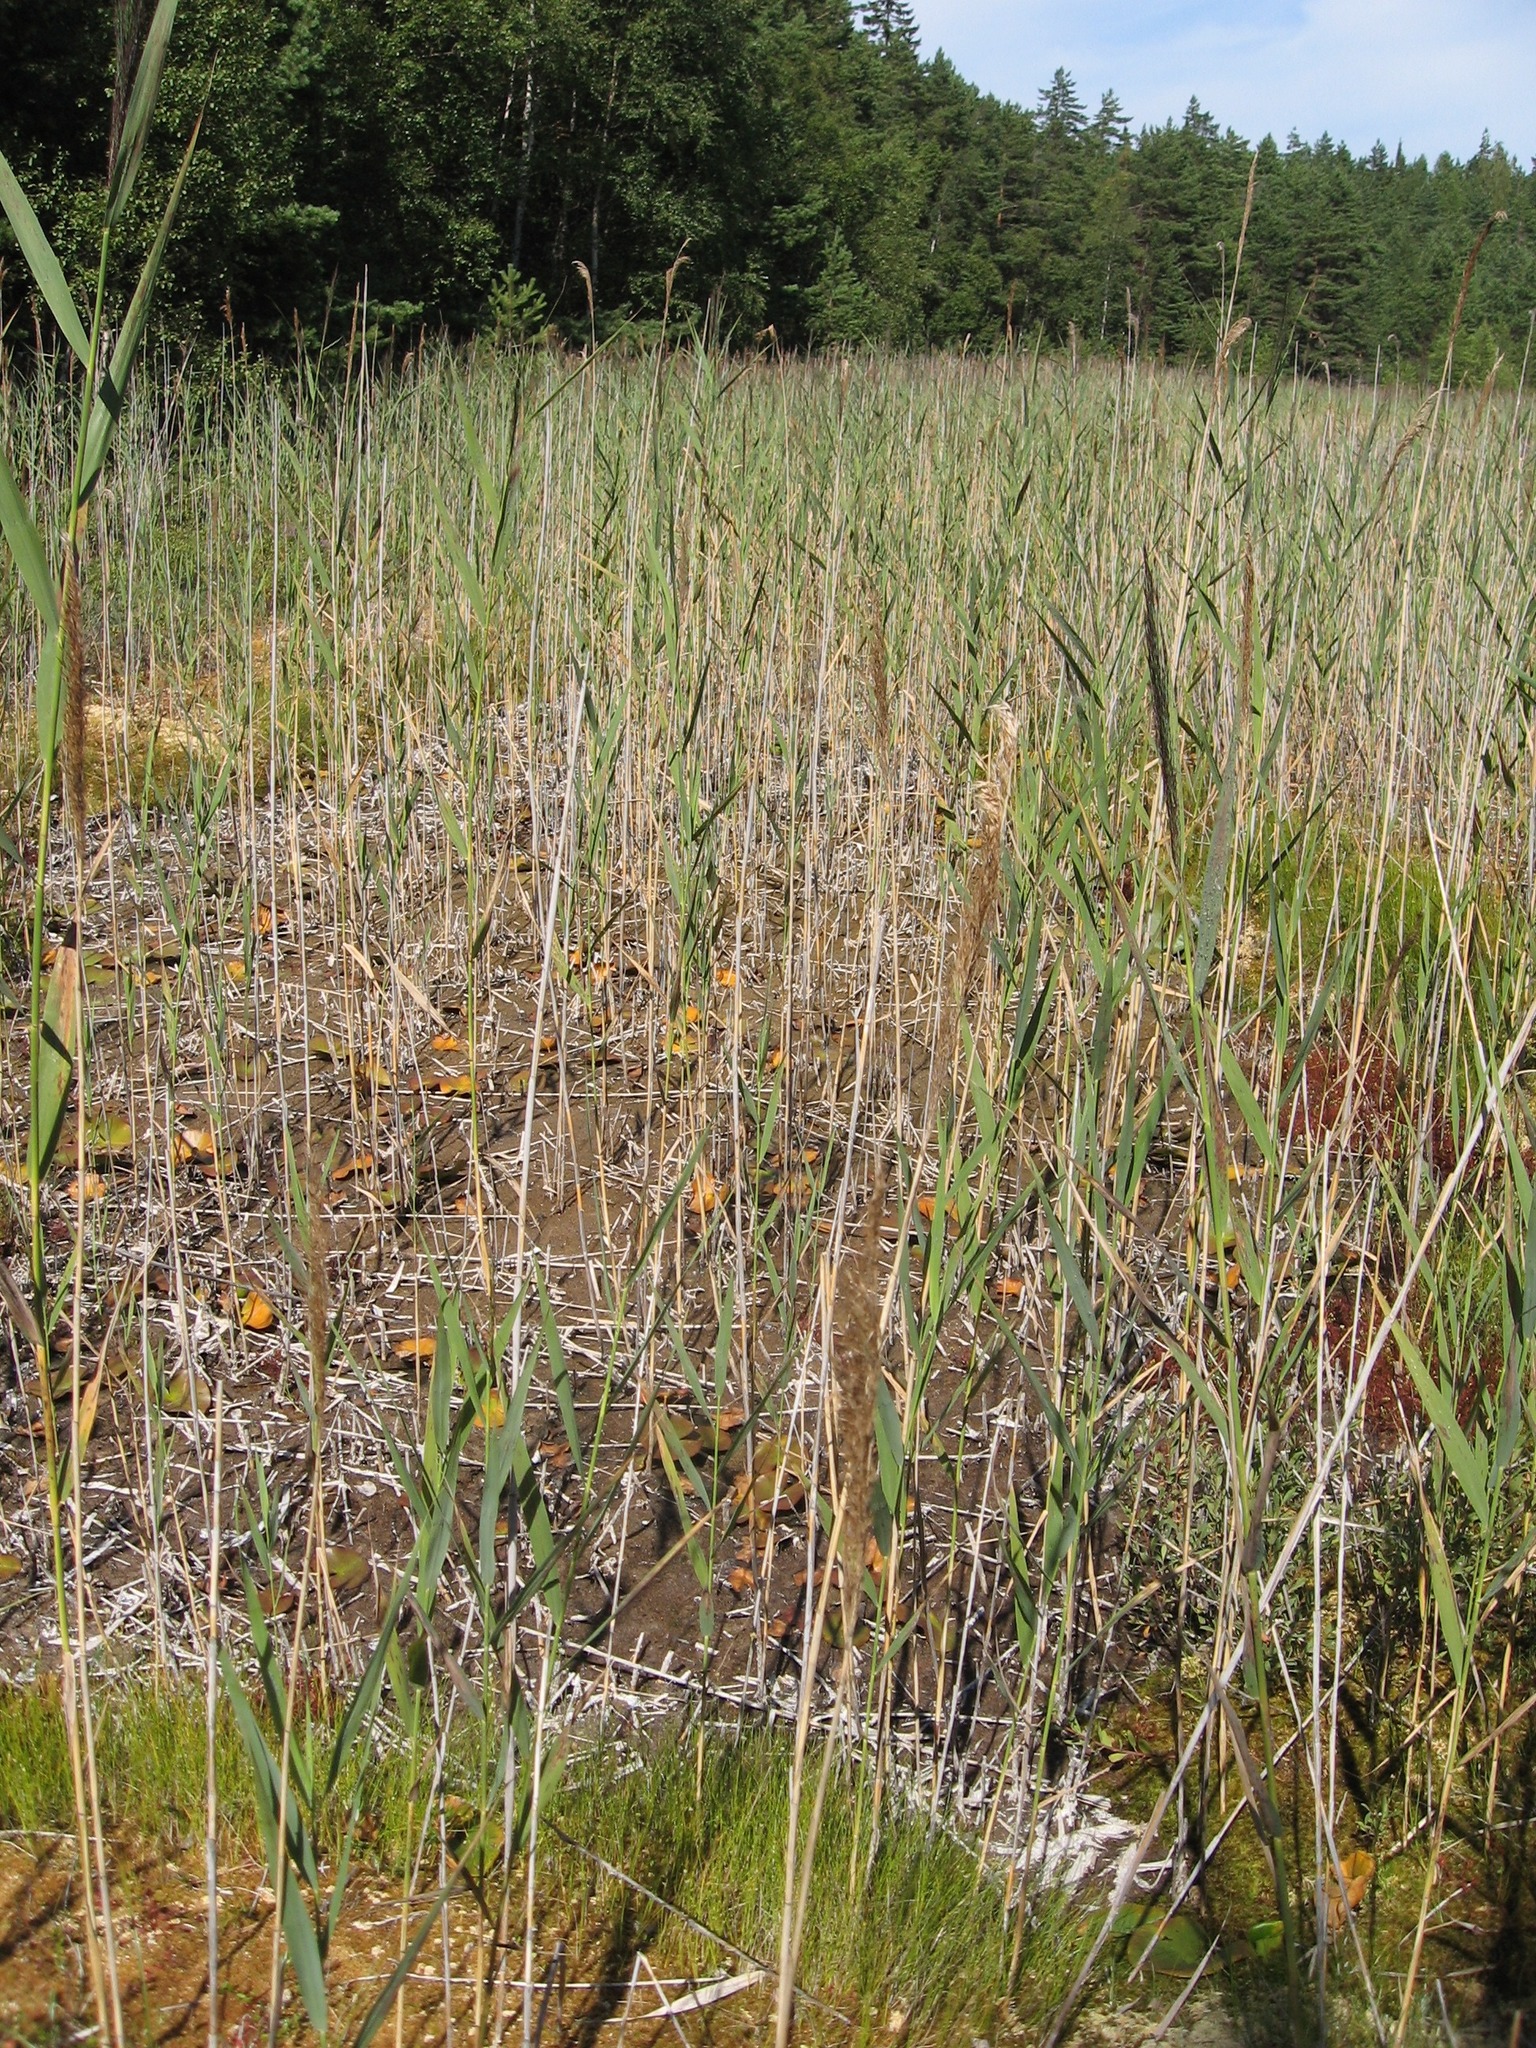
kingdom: Plantae
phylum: Tracheophyta
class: Liliopsida
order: Poales
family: Poaceae
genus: Phragmites
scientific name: Phragmites australis
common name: Common reed
